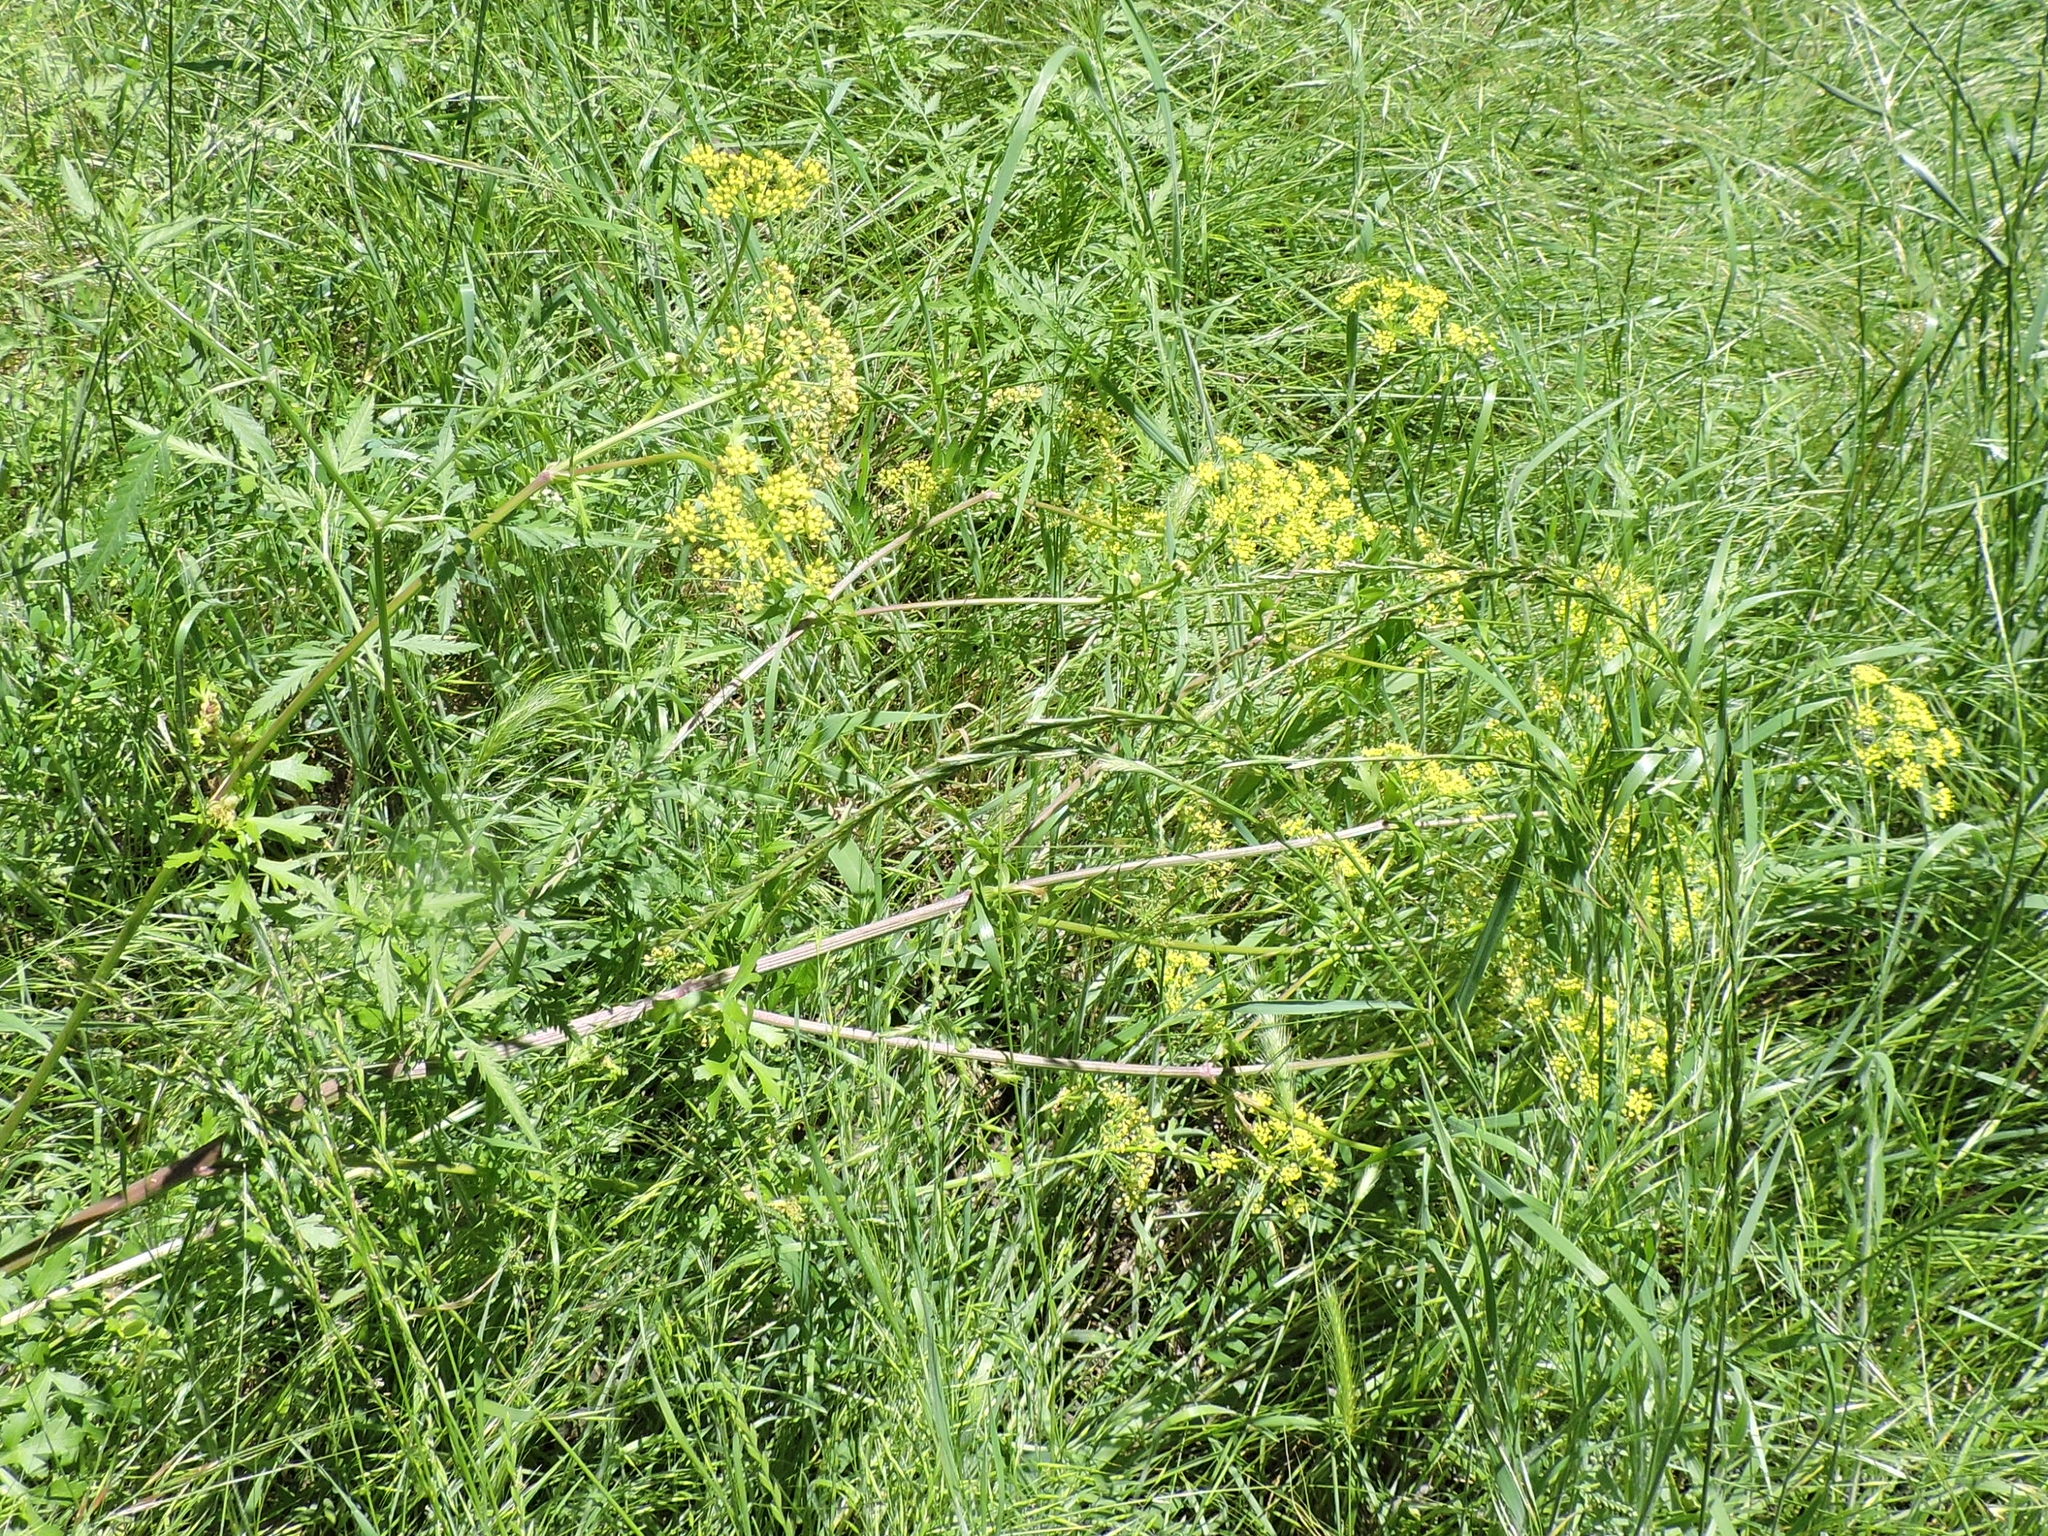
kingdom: Plantae
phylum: Tracheophyta
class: Magnoliopsida
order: Apiales
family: Apiaceae
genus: Polytaenia
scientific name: Polytaenia texana
